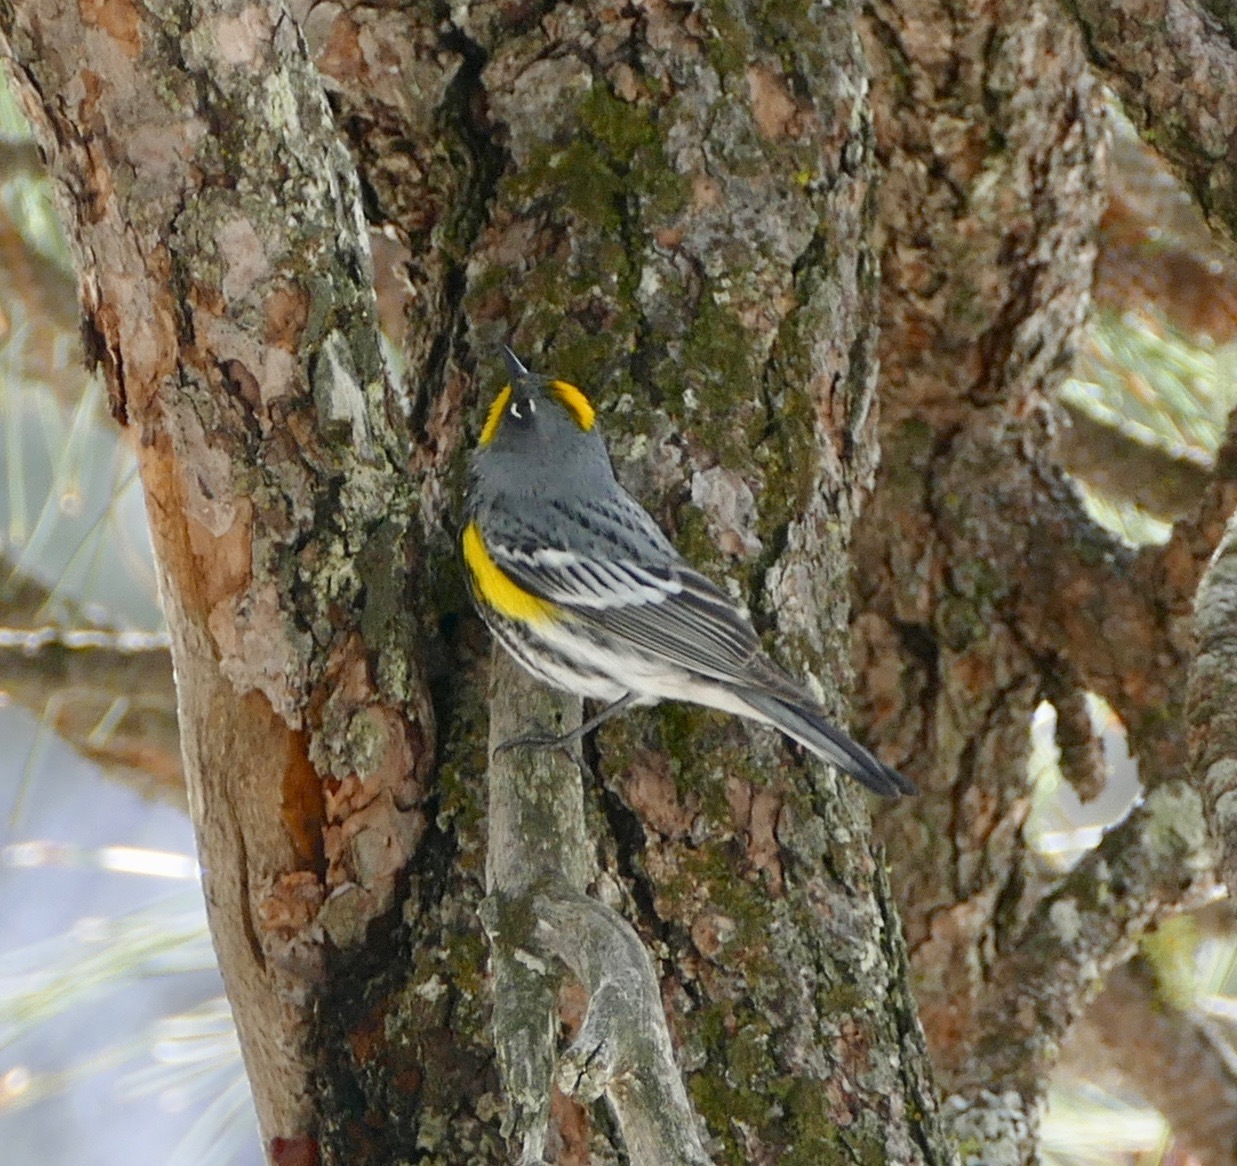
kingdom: Animalia
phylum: Chordata
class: Aves
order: Passeriformes
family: Parulidae
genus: Setophaga
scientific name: Setophaga coronata
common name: Myrtle warbler
